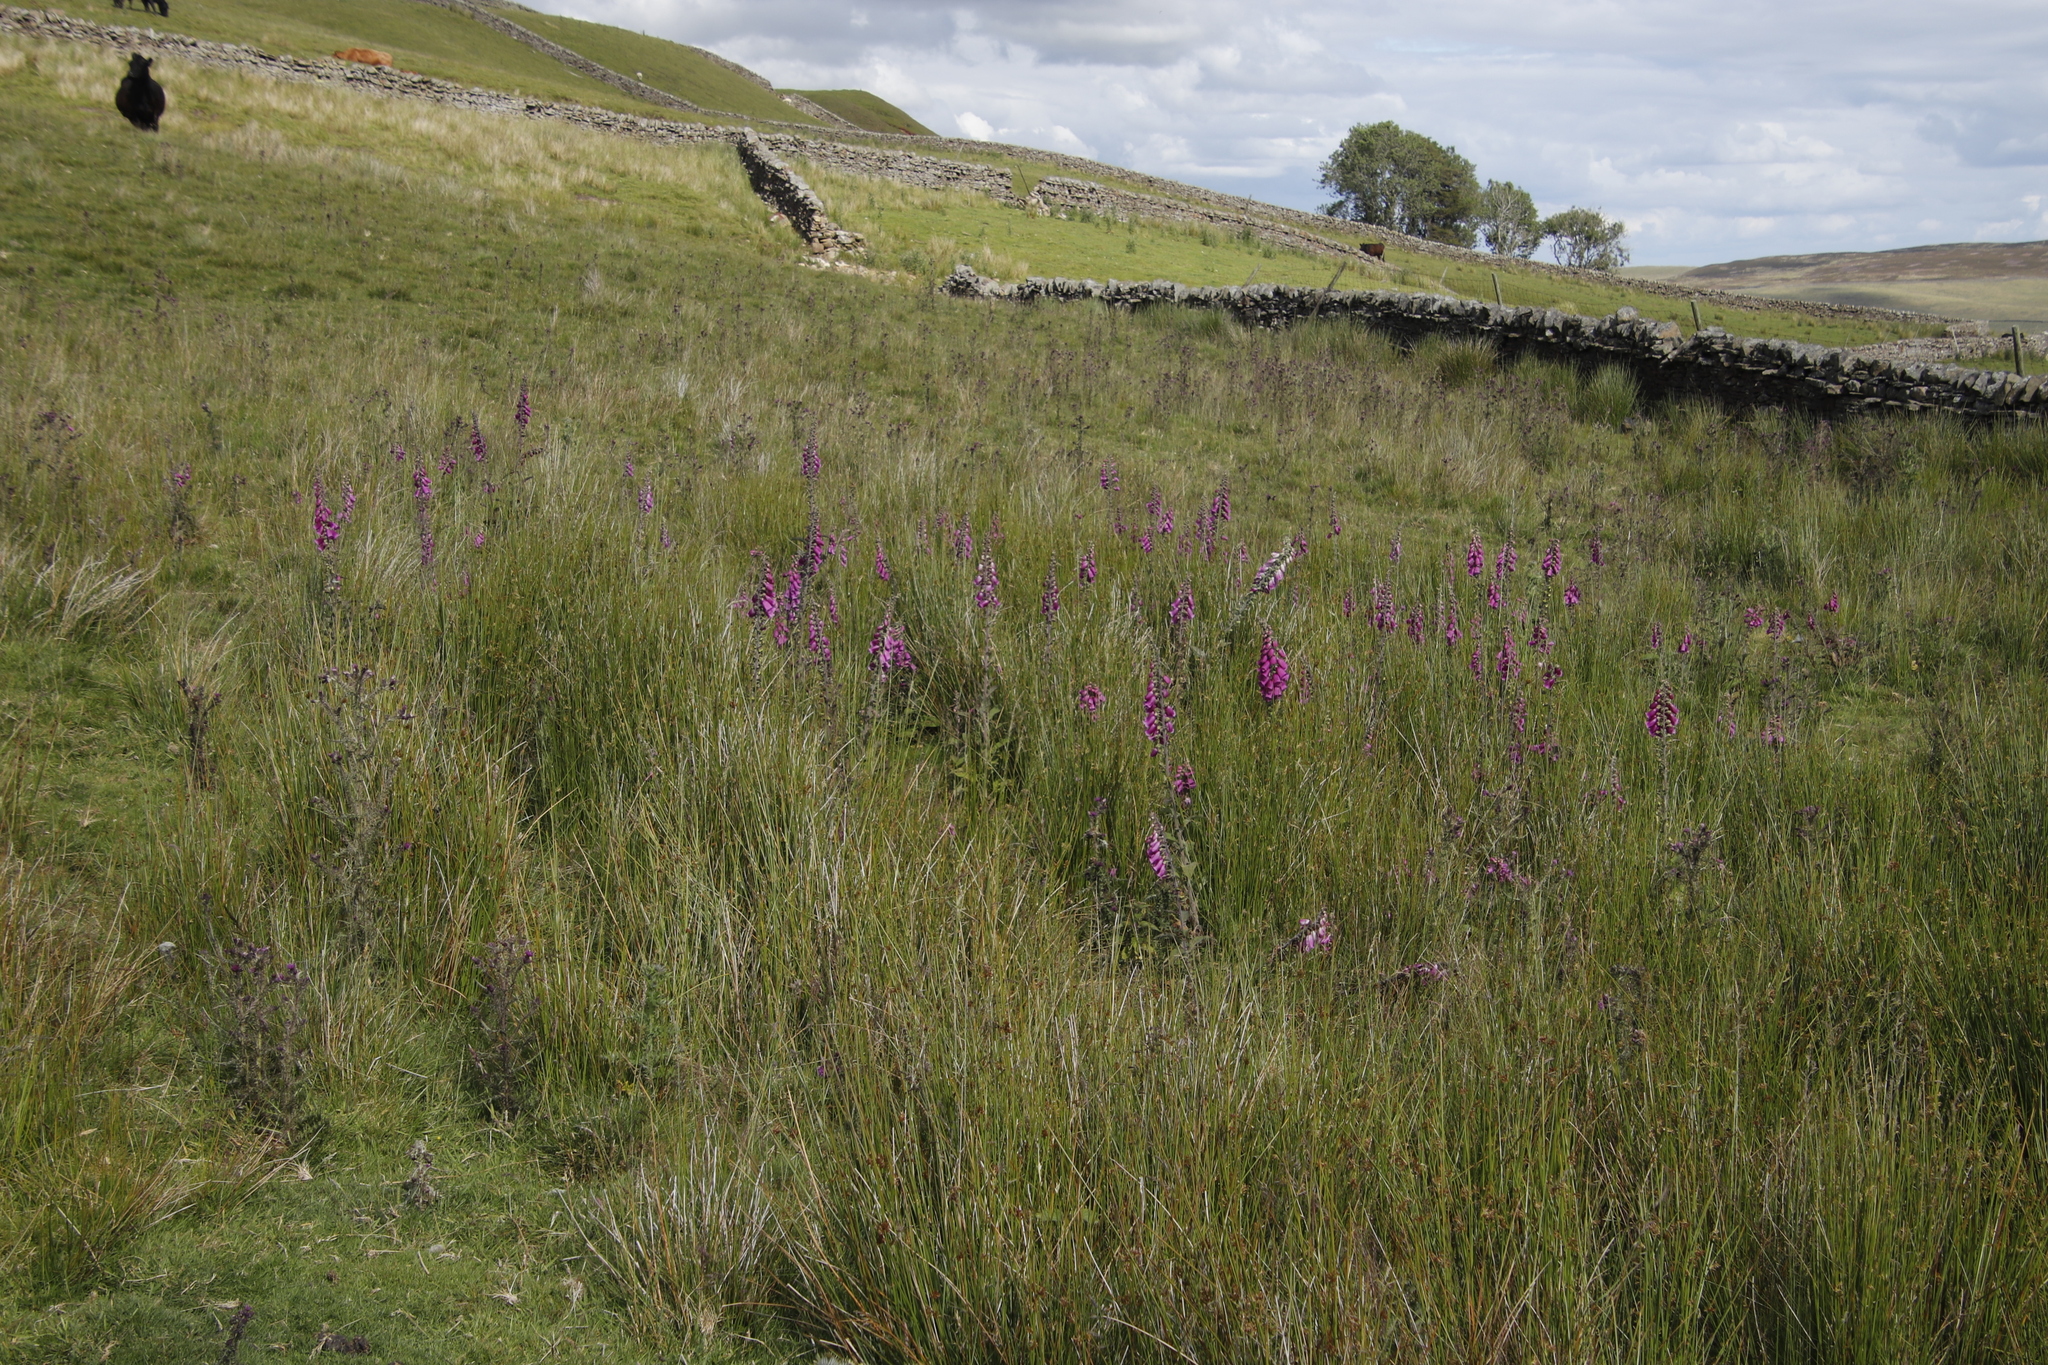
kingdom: Plantae
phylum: Tracheophyta
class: Magnoliopsida
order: Lamiales
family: Plantaginaceae
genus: Digitalis
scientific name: Digitalis purpurea
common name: Foxglove
